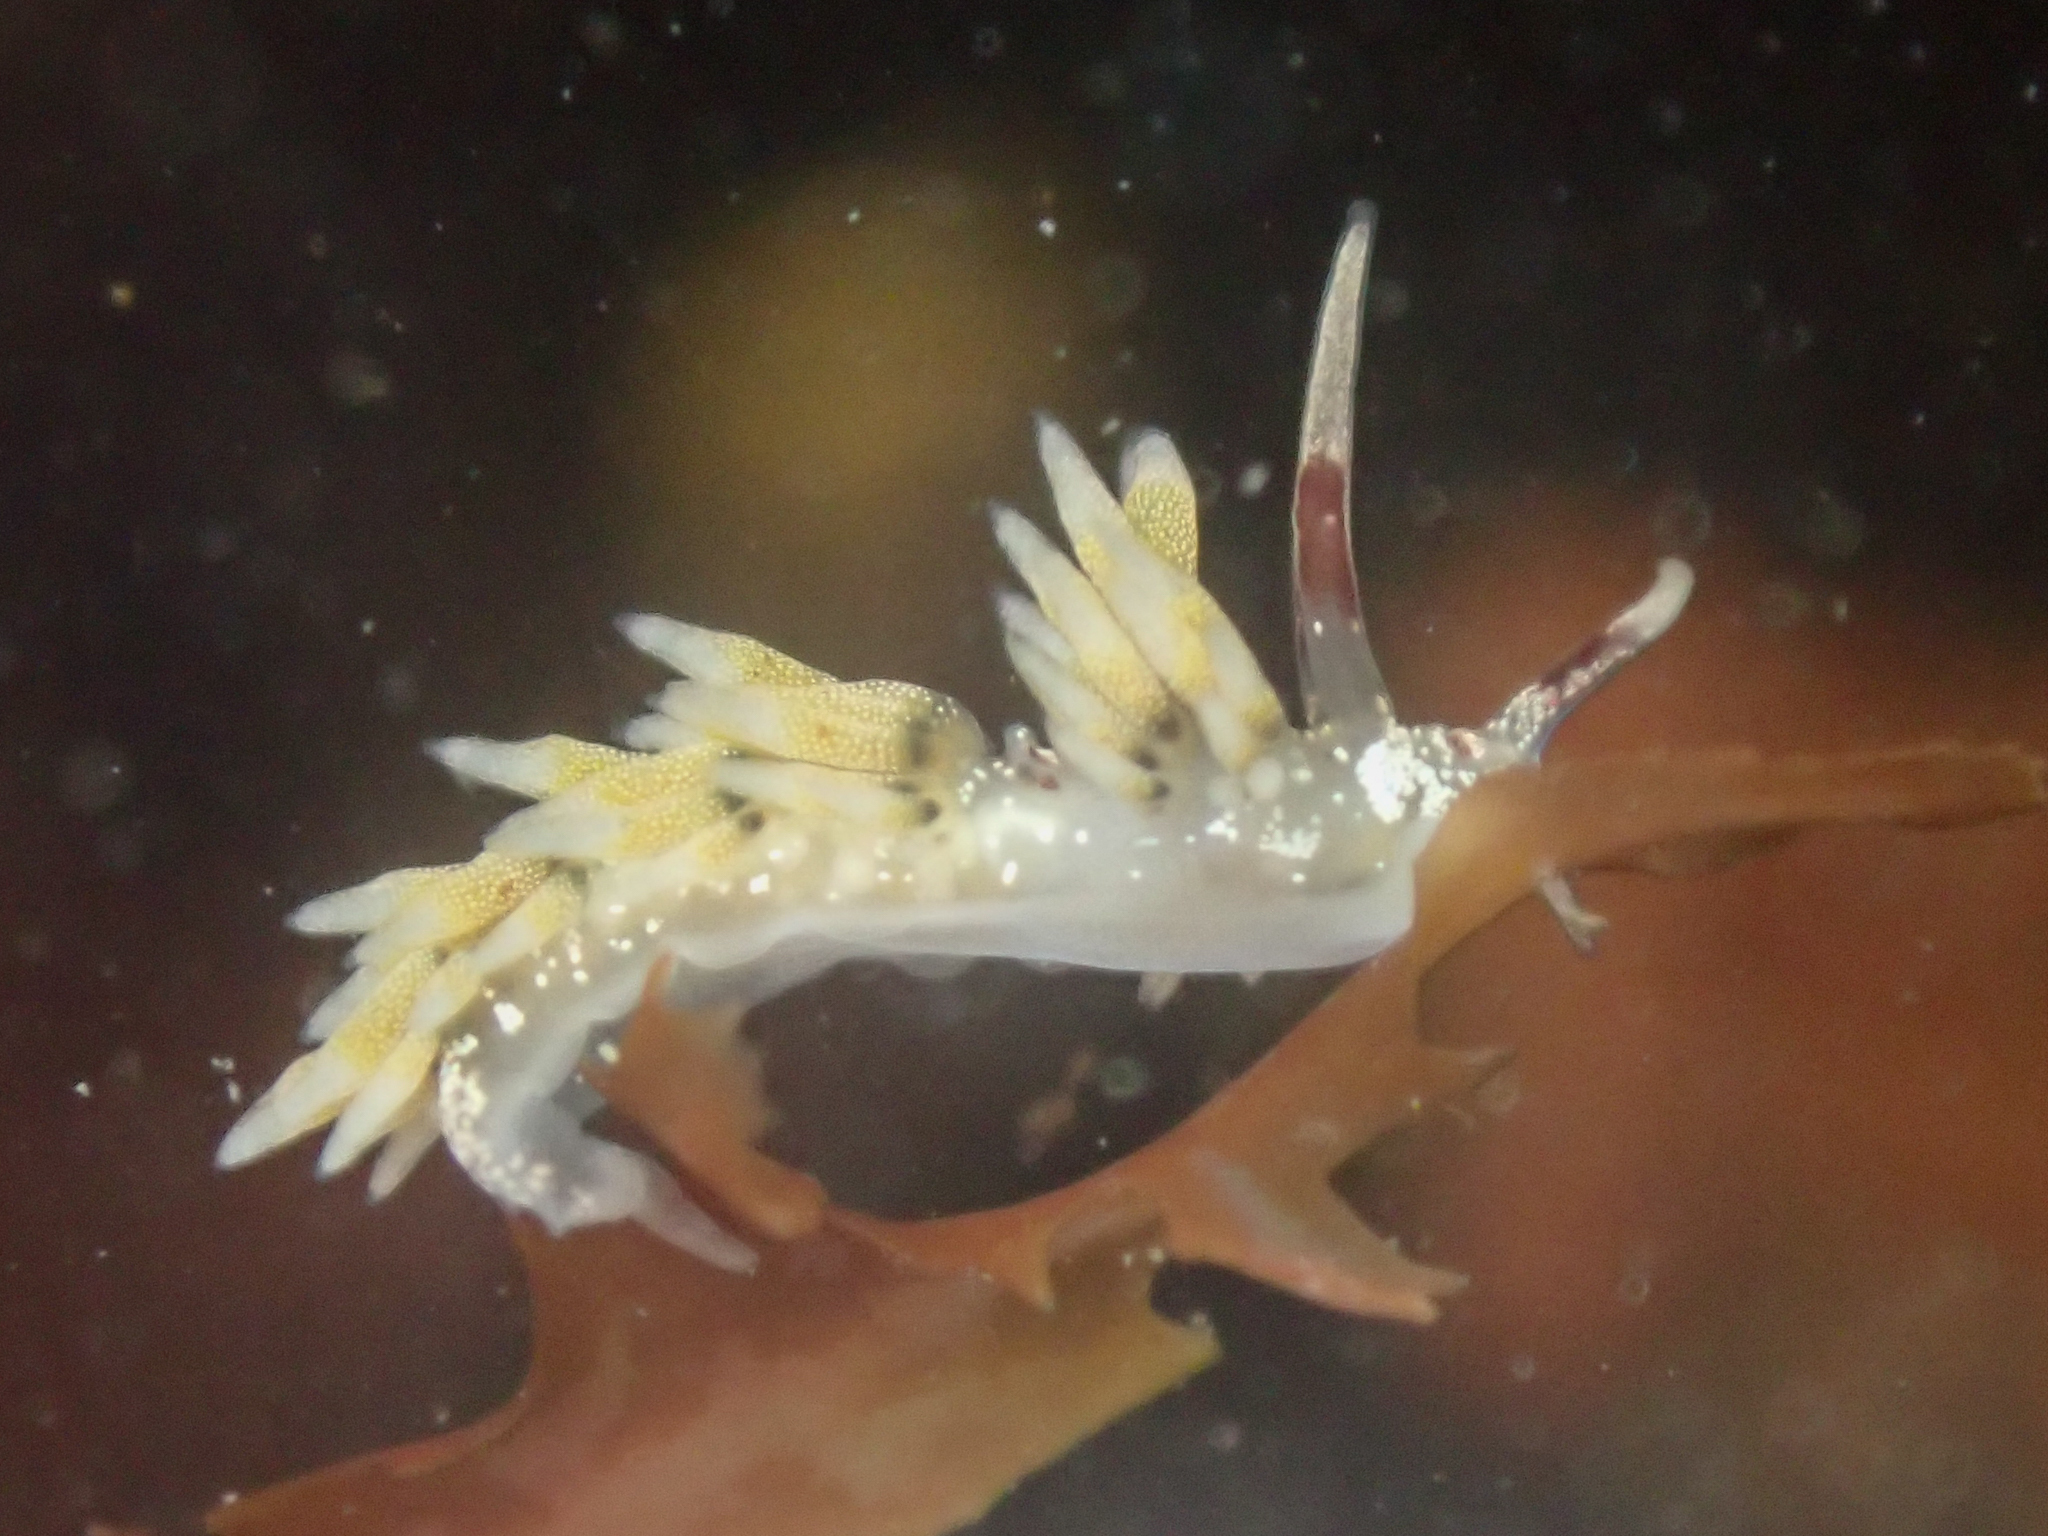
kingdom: Animalia
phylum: Mollusca
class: Gastropoda
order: Nudibranchia
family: Cuthonidae
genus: Cuthona
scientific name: Cuthona hamanni
